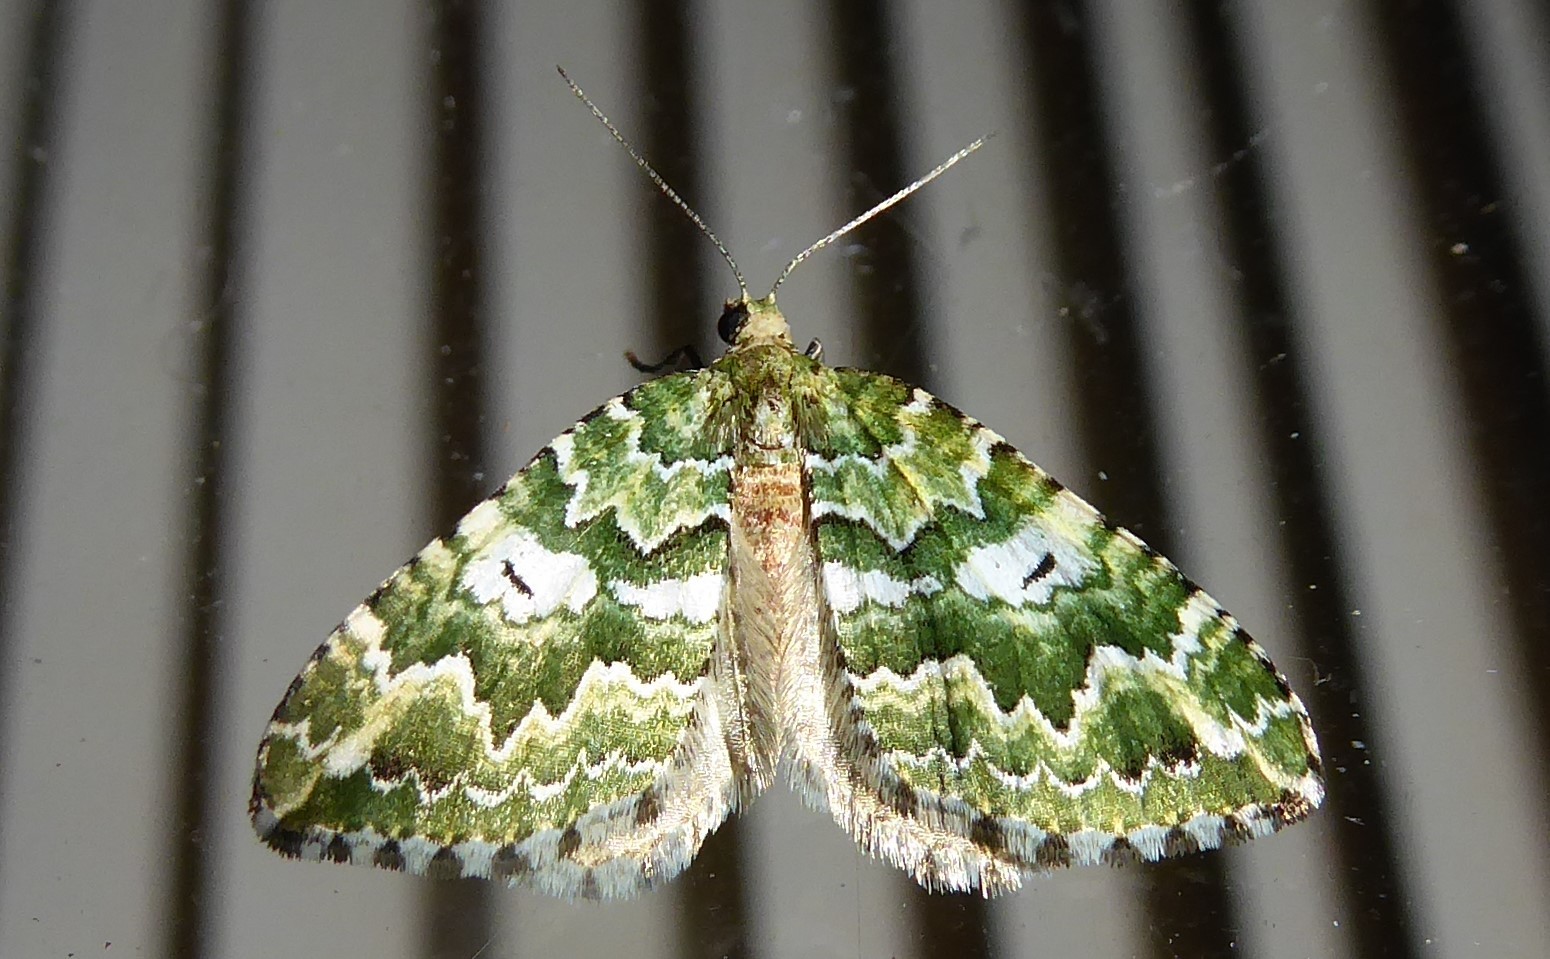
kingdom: Animalia
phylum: Arthropoda
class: Insecta
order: Lepidoptera
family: Geometridae
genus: Asaphodes
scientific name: Asaphodes beata
